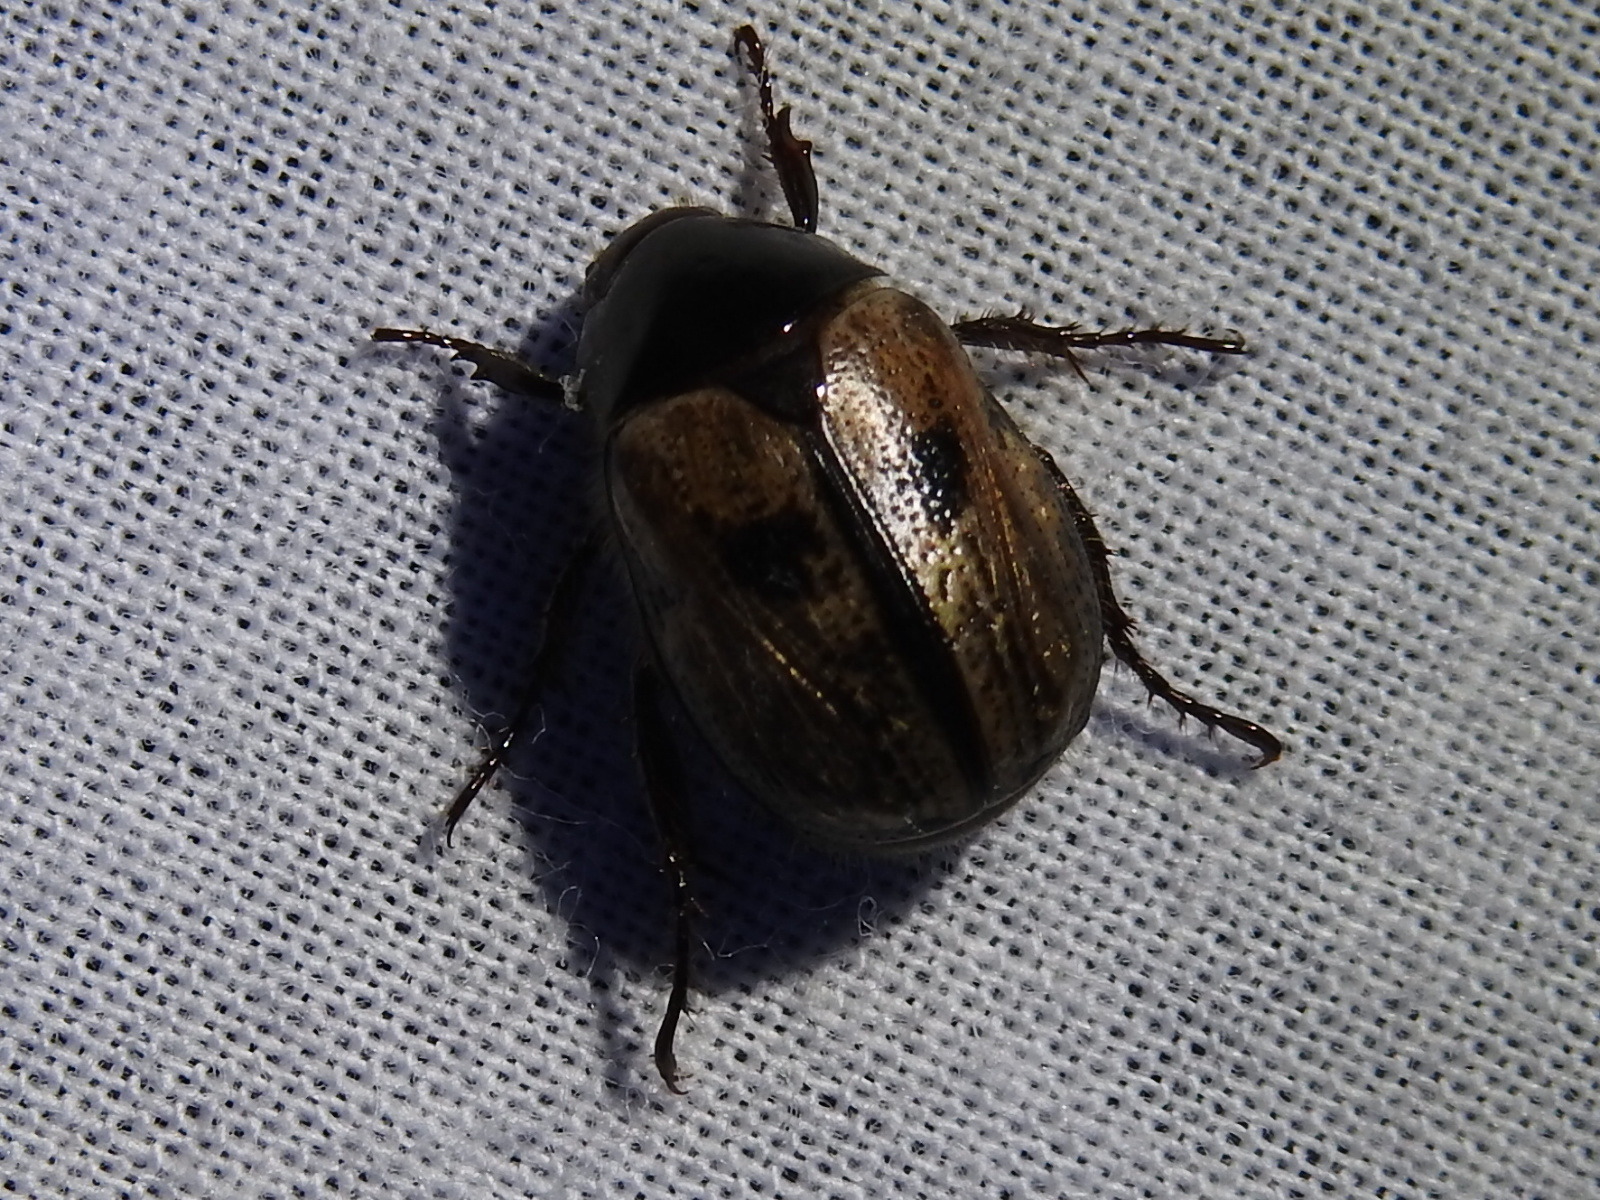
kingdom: Animalia
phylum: Arthropoda
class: Insecta
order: Coleoptera
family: Scarabaeidae
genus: Paranomala
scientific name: Paranomala binotata
